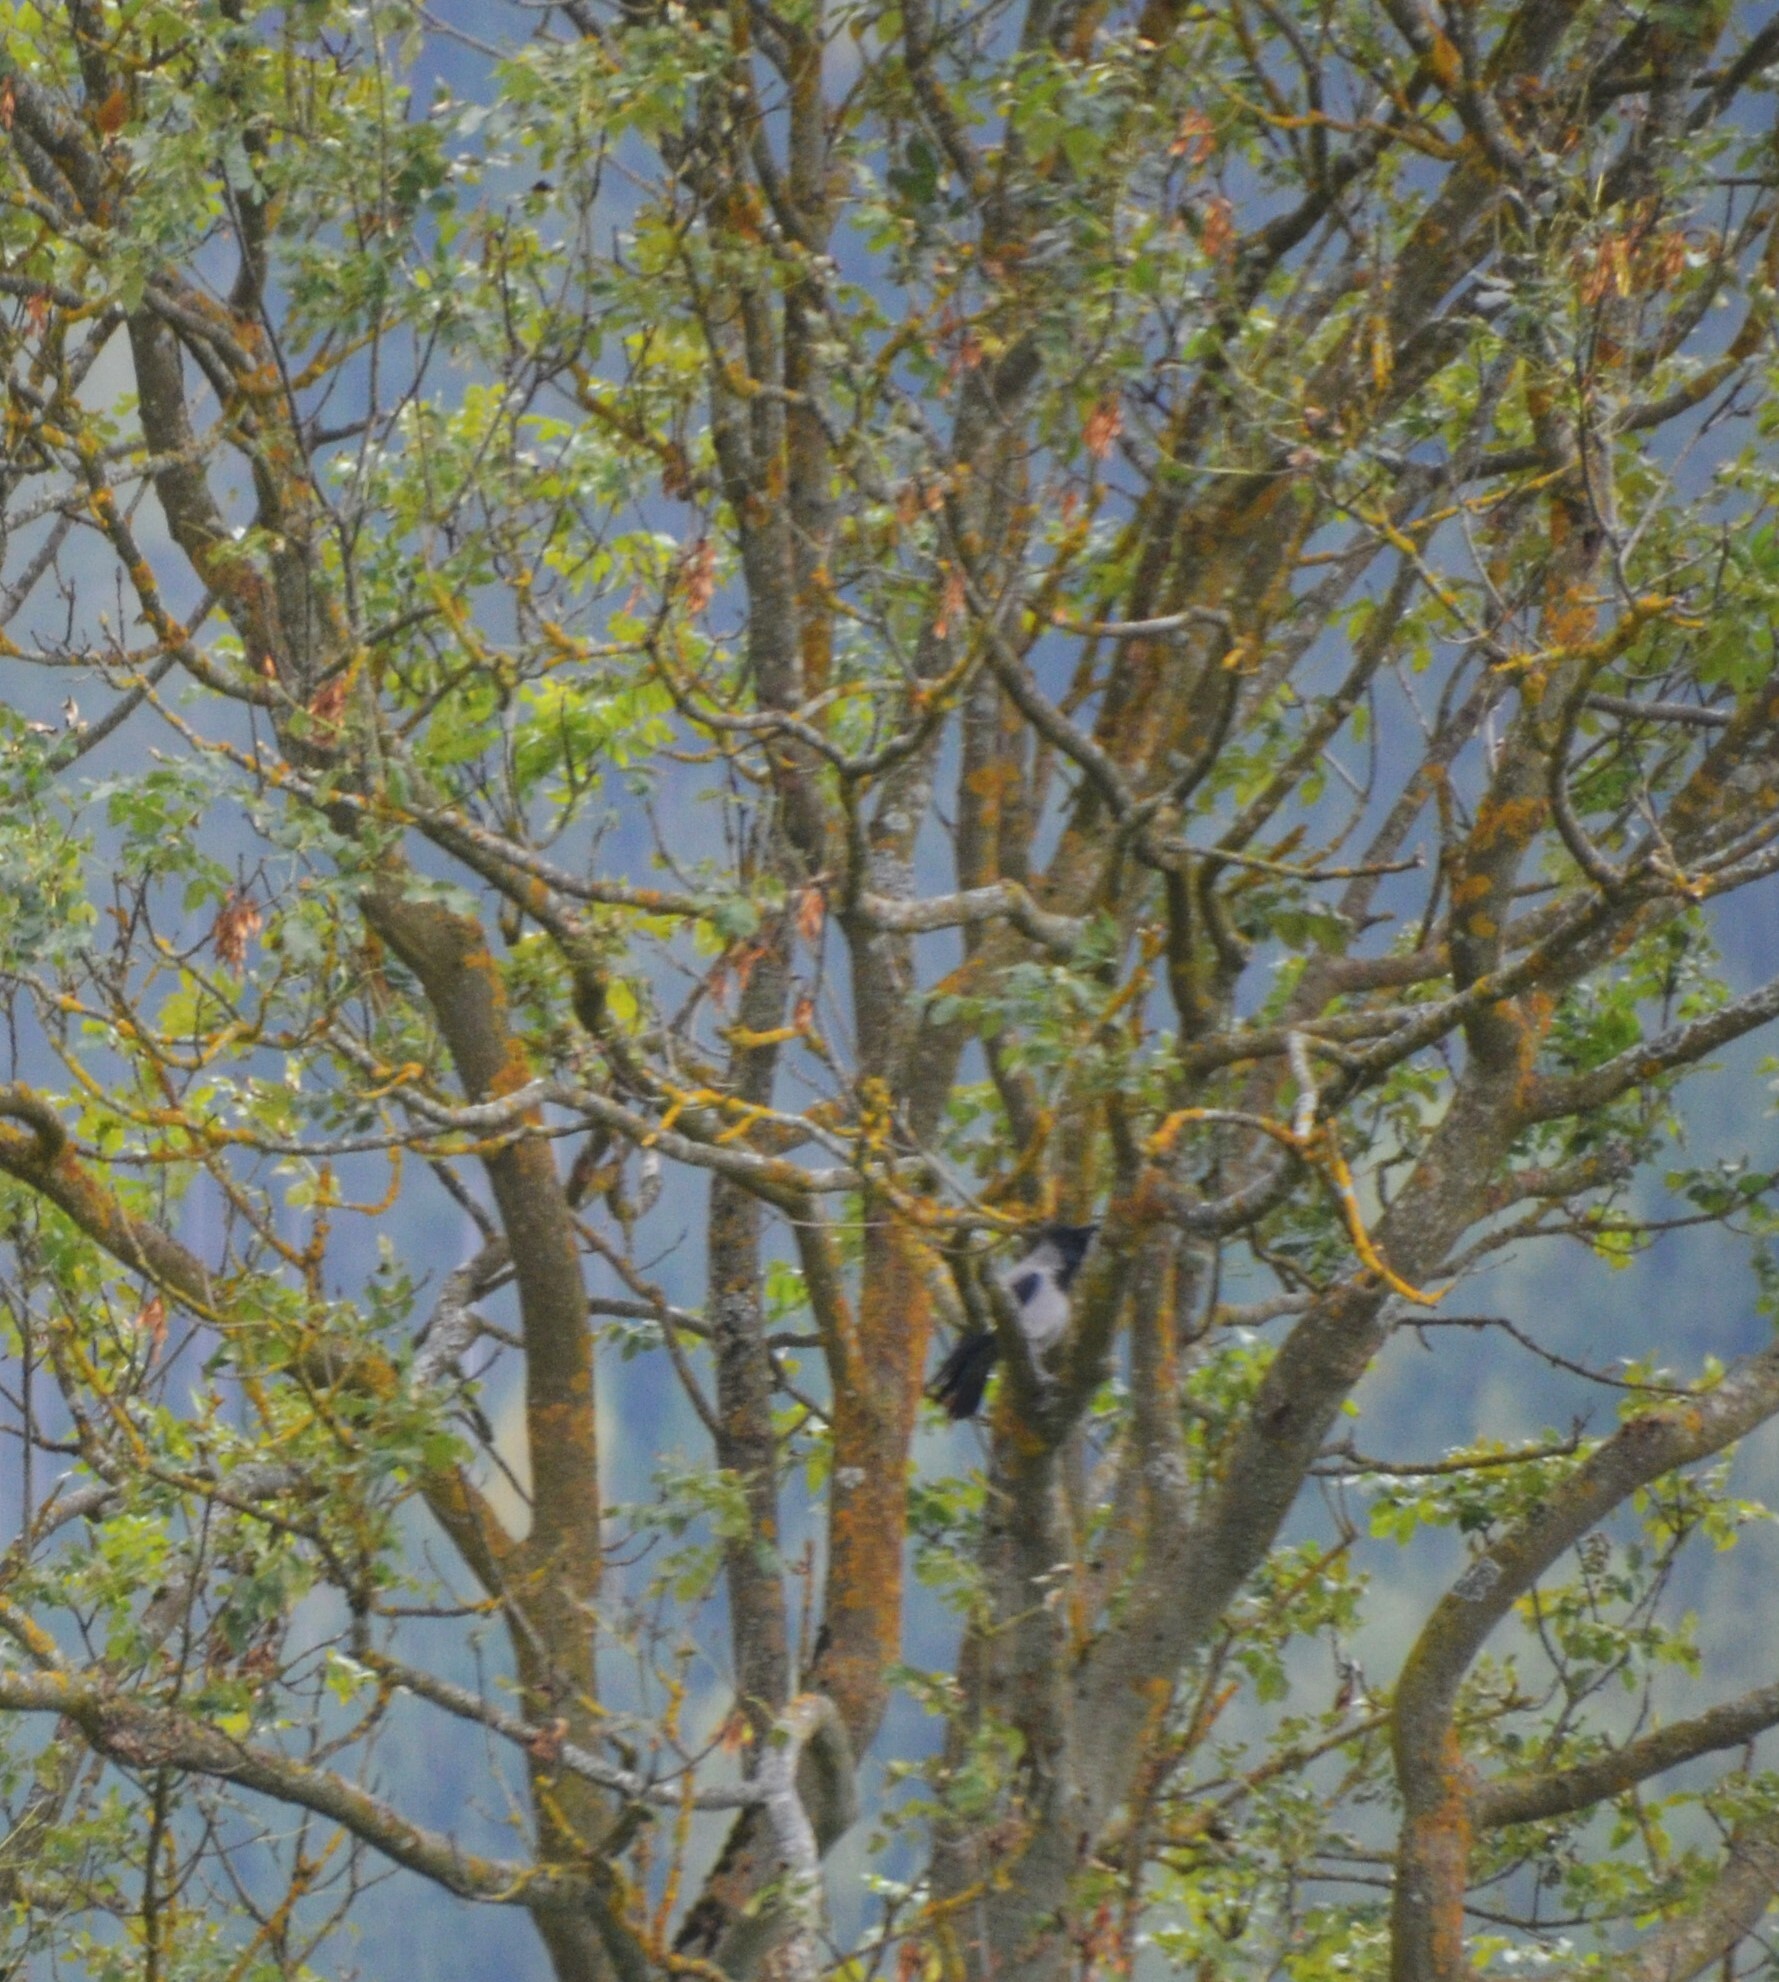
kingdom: Animalia
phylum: Chordata
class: Aves
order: Passeriformes
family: Corvidae
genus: Corvus
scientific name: Corvus cornix
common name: Hooded crow
